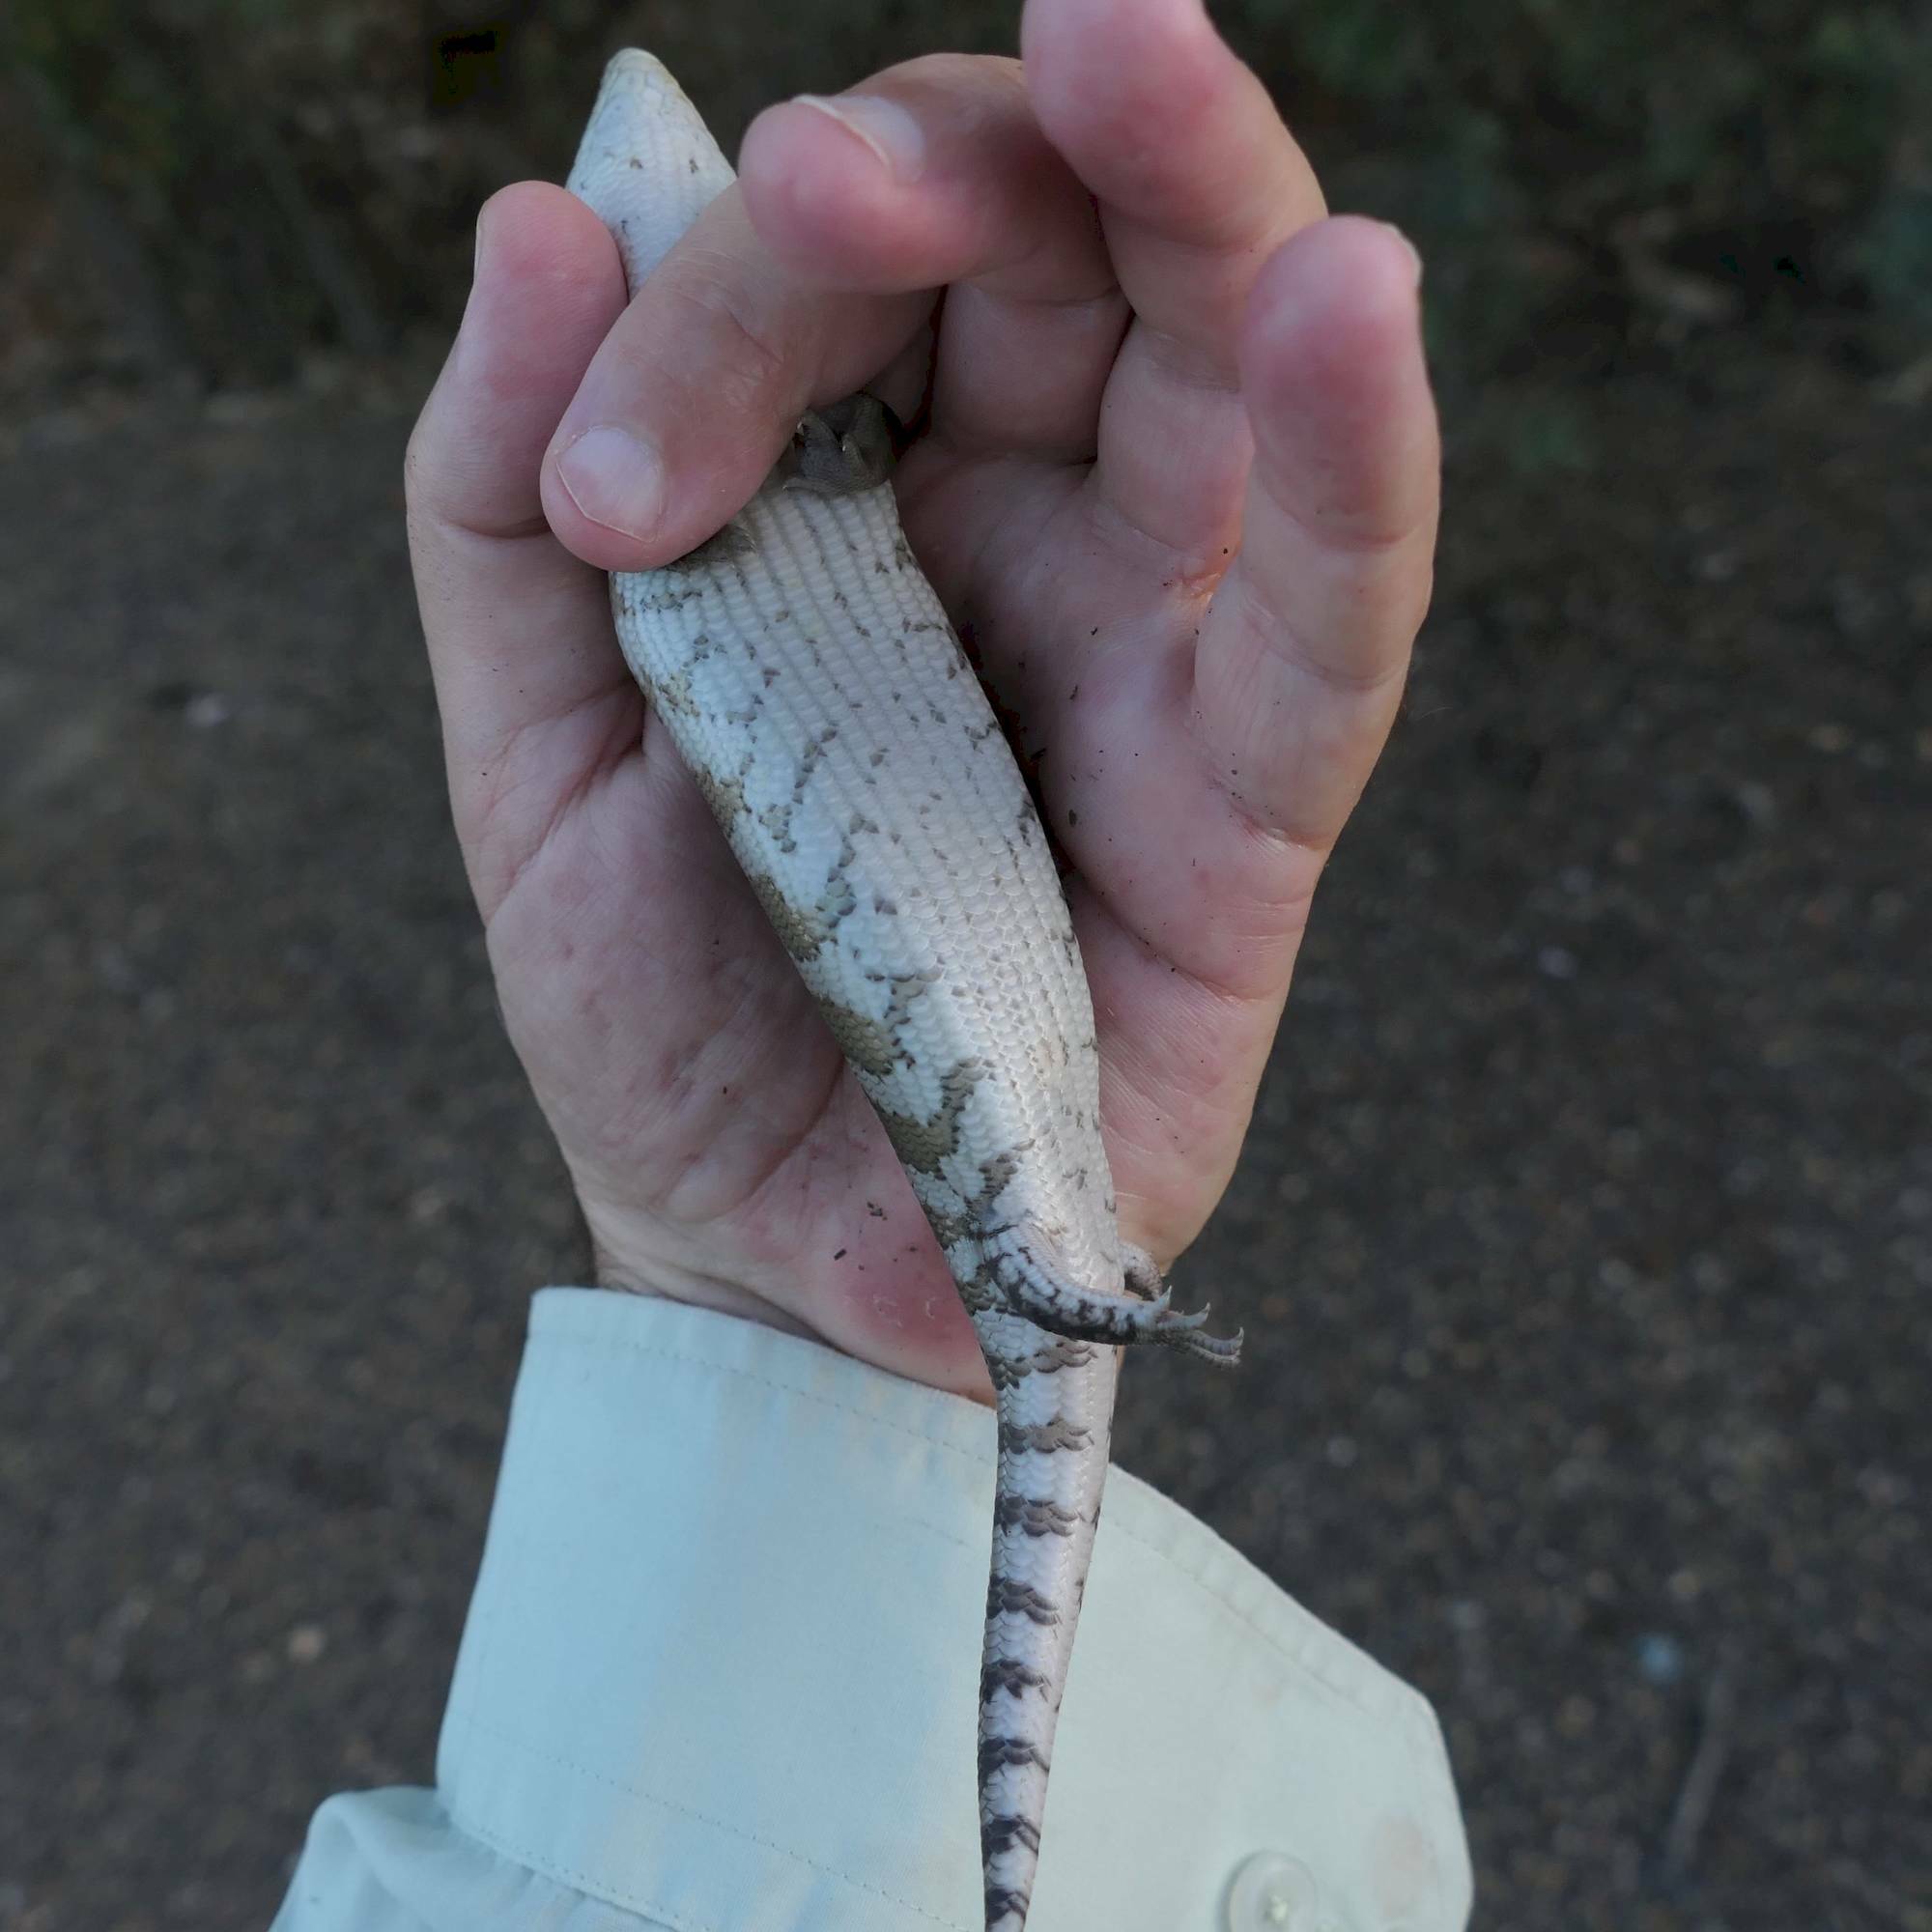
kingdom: Animalia
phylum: Chordata
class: Squamata
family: Scincidae
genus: Tiliqua
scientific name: Tiliqua scincoides
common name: Common bluetongue
